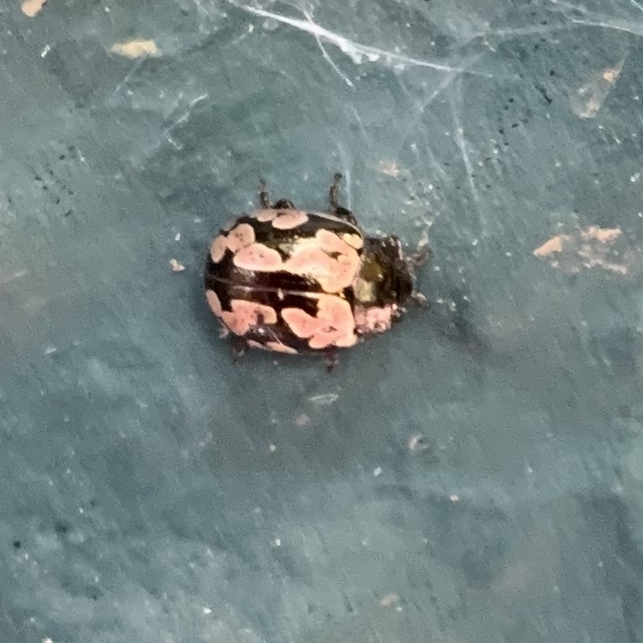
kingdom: Animalia
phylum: Arthropoda
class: Insecta
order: Coleoptera
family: Chrysomelidae
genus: Calligrapha
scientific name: Calligrapha multiguttata
